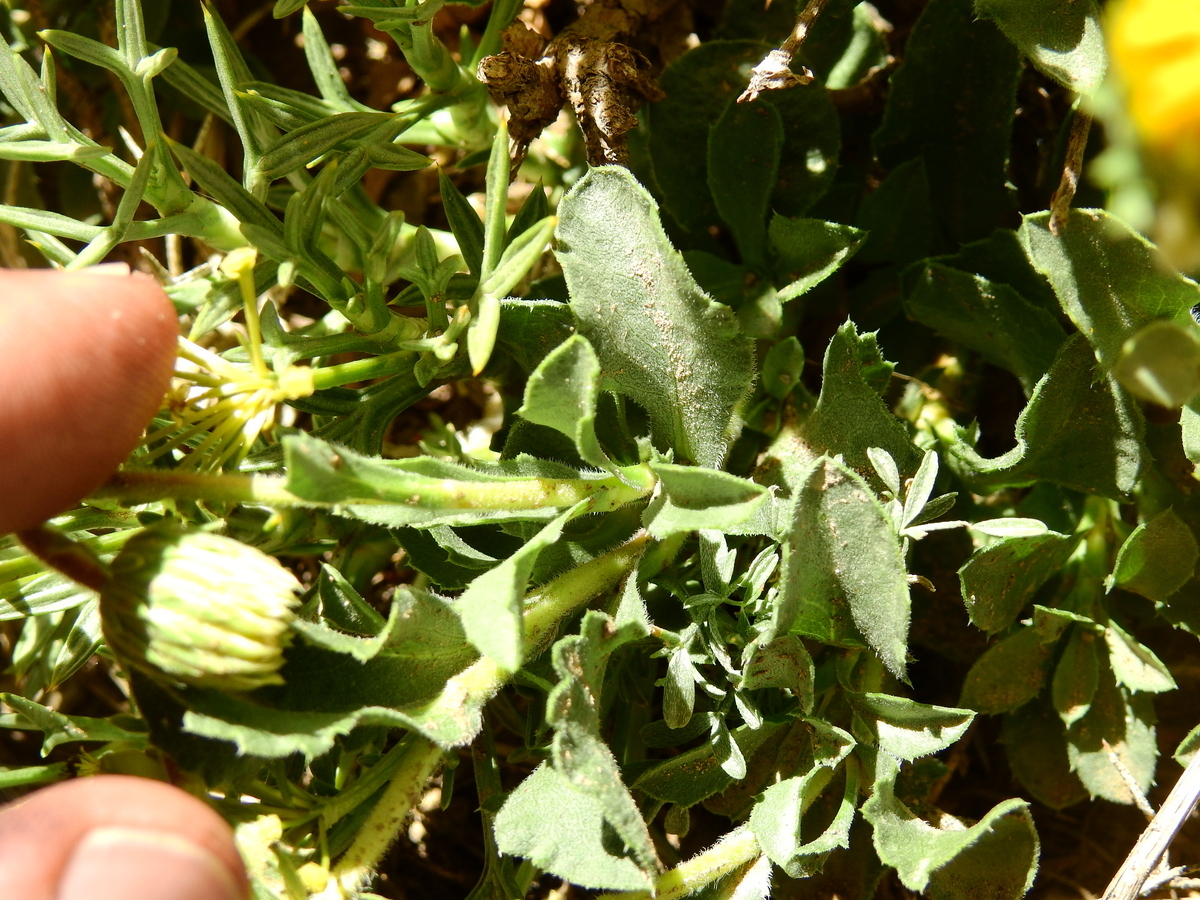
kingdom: Plantae
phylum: Tracheophyta
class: Magnoliopsida
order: Asterales
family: Asteraceae
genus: Haplopappus
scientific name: Haplopappus grindelioides
